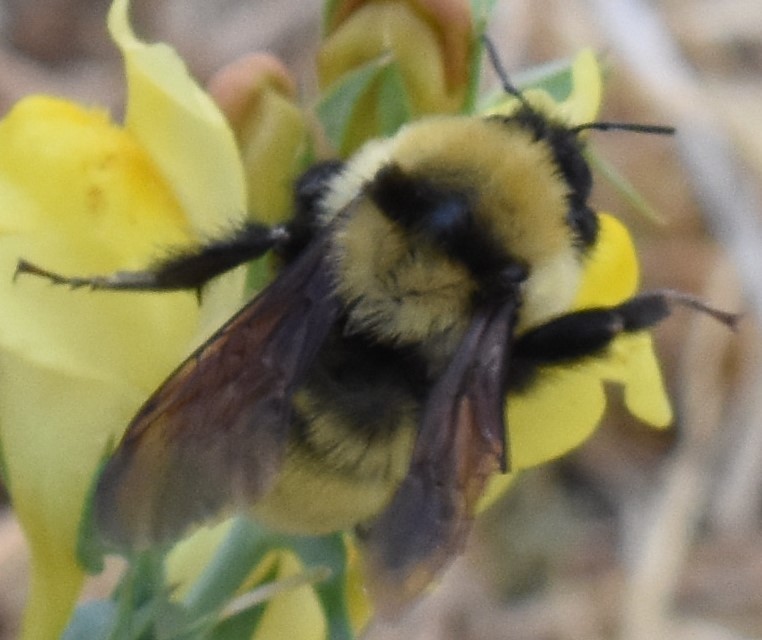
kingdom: Animalia
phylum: Arthropoda
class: Insecta
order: Hymenoptera
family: Apidae
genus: Bombus
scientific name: Bombus fervidus
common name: Yellow bumble bee
